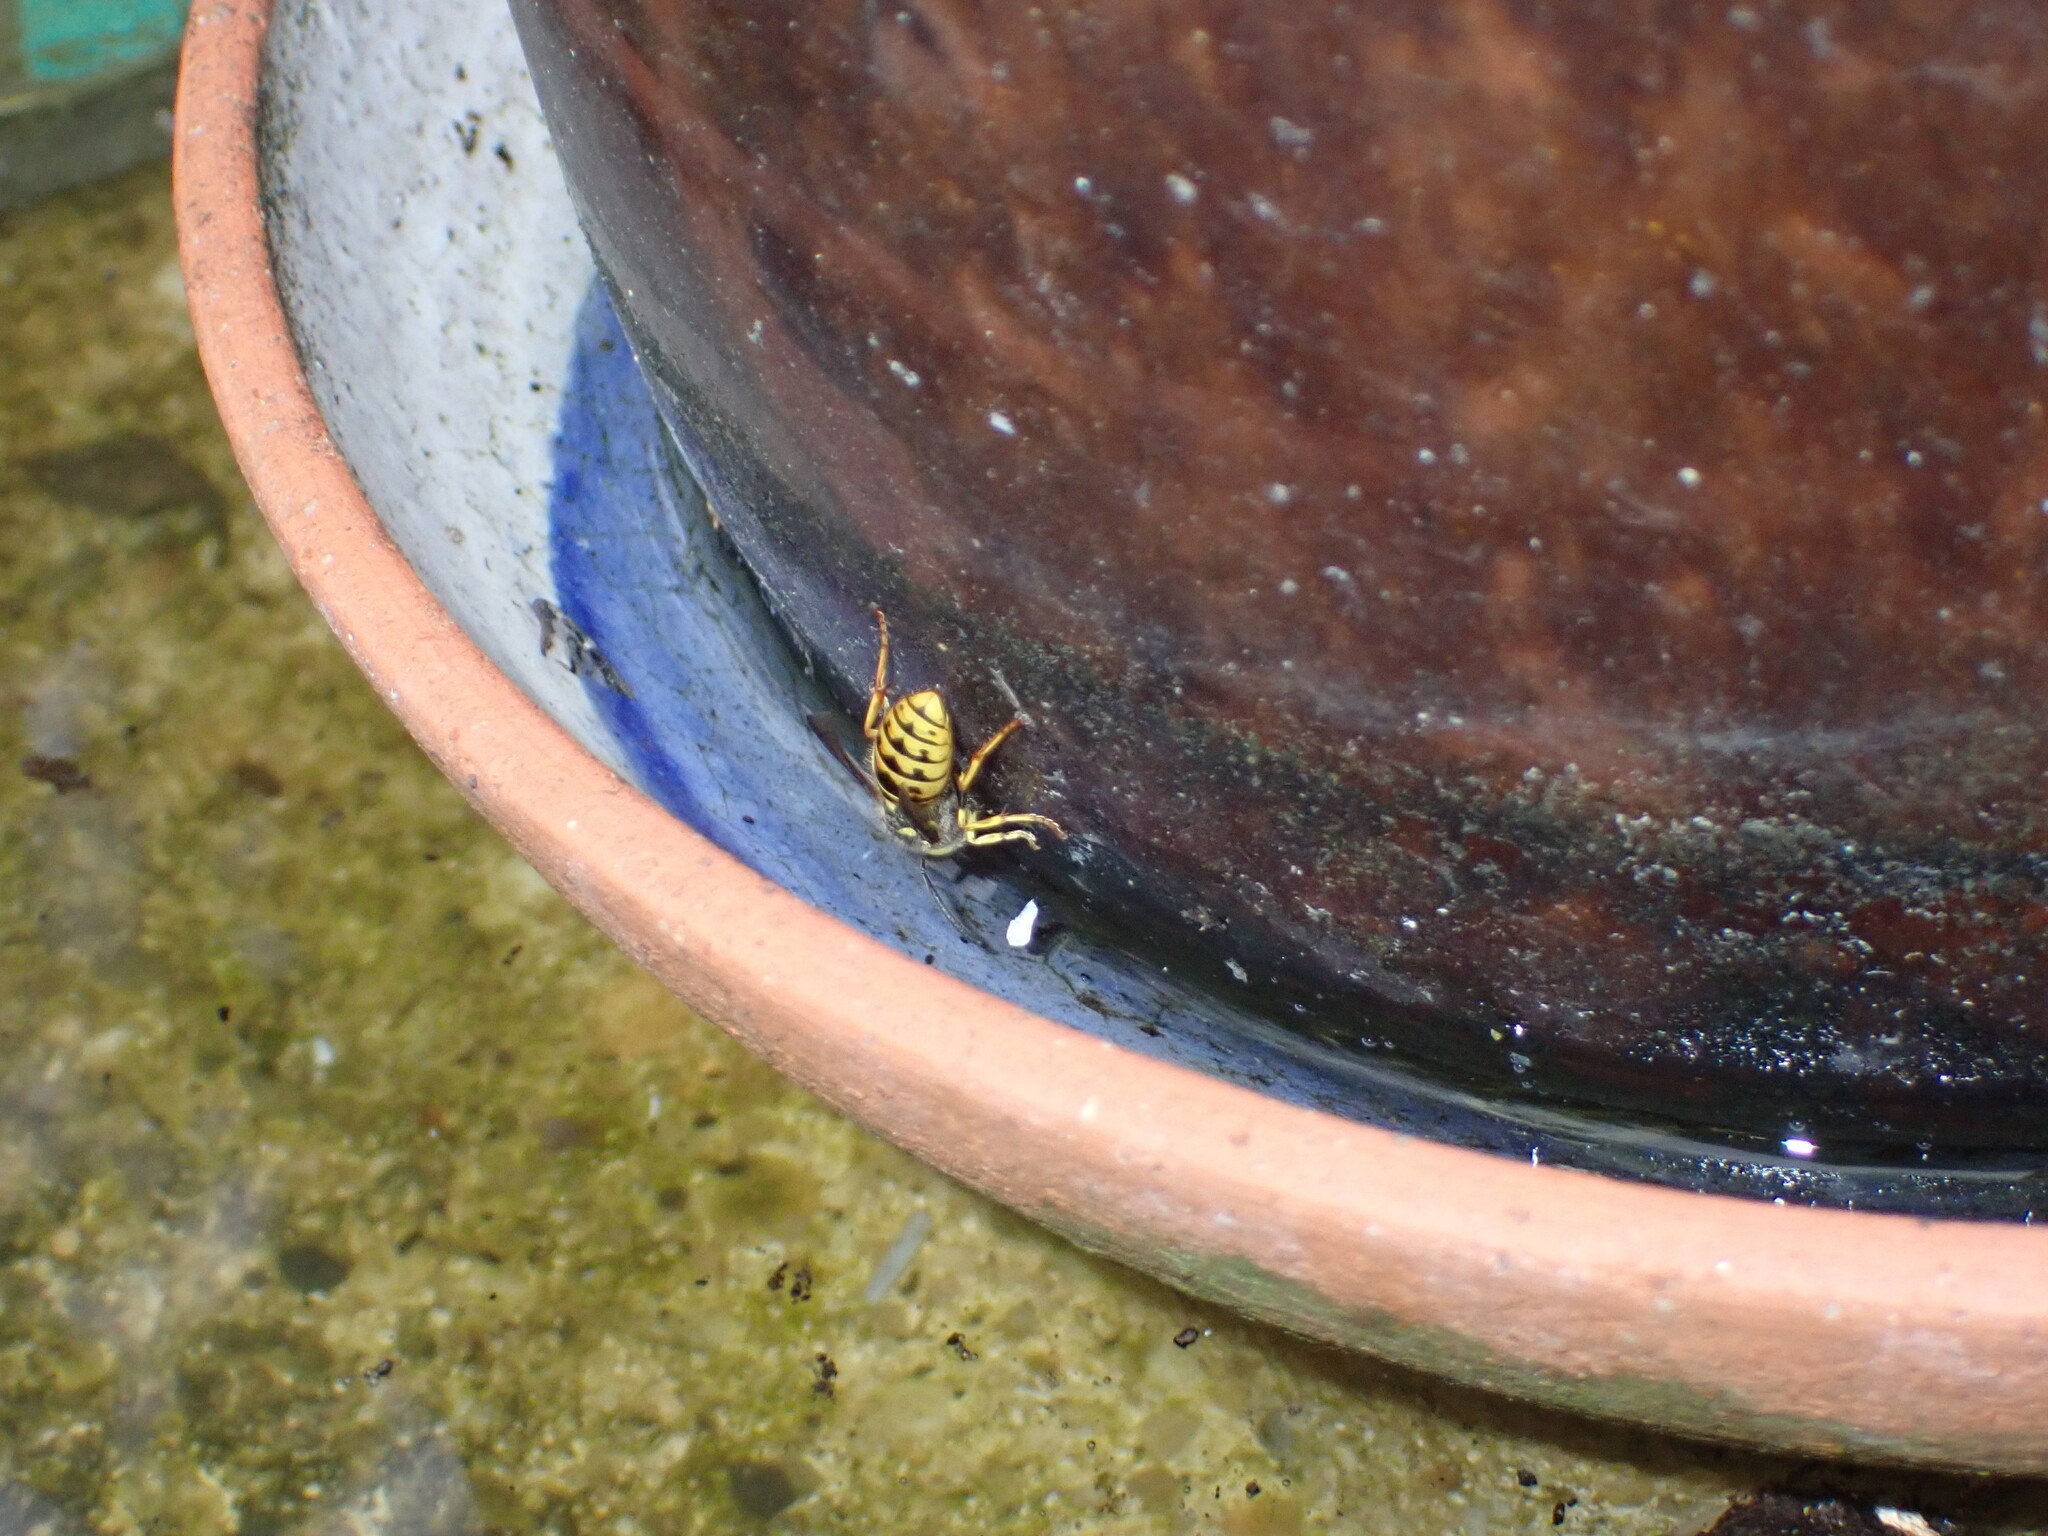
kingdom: Animalia
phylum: Arthropoda
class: Insecta
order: Hymenoptera
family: Vespidae
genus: Vespula
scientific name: Vespula germanica
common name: German wasp
